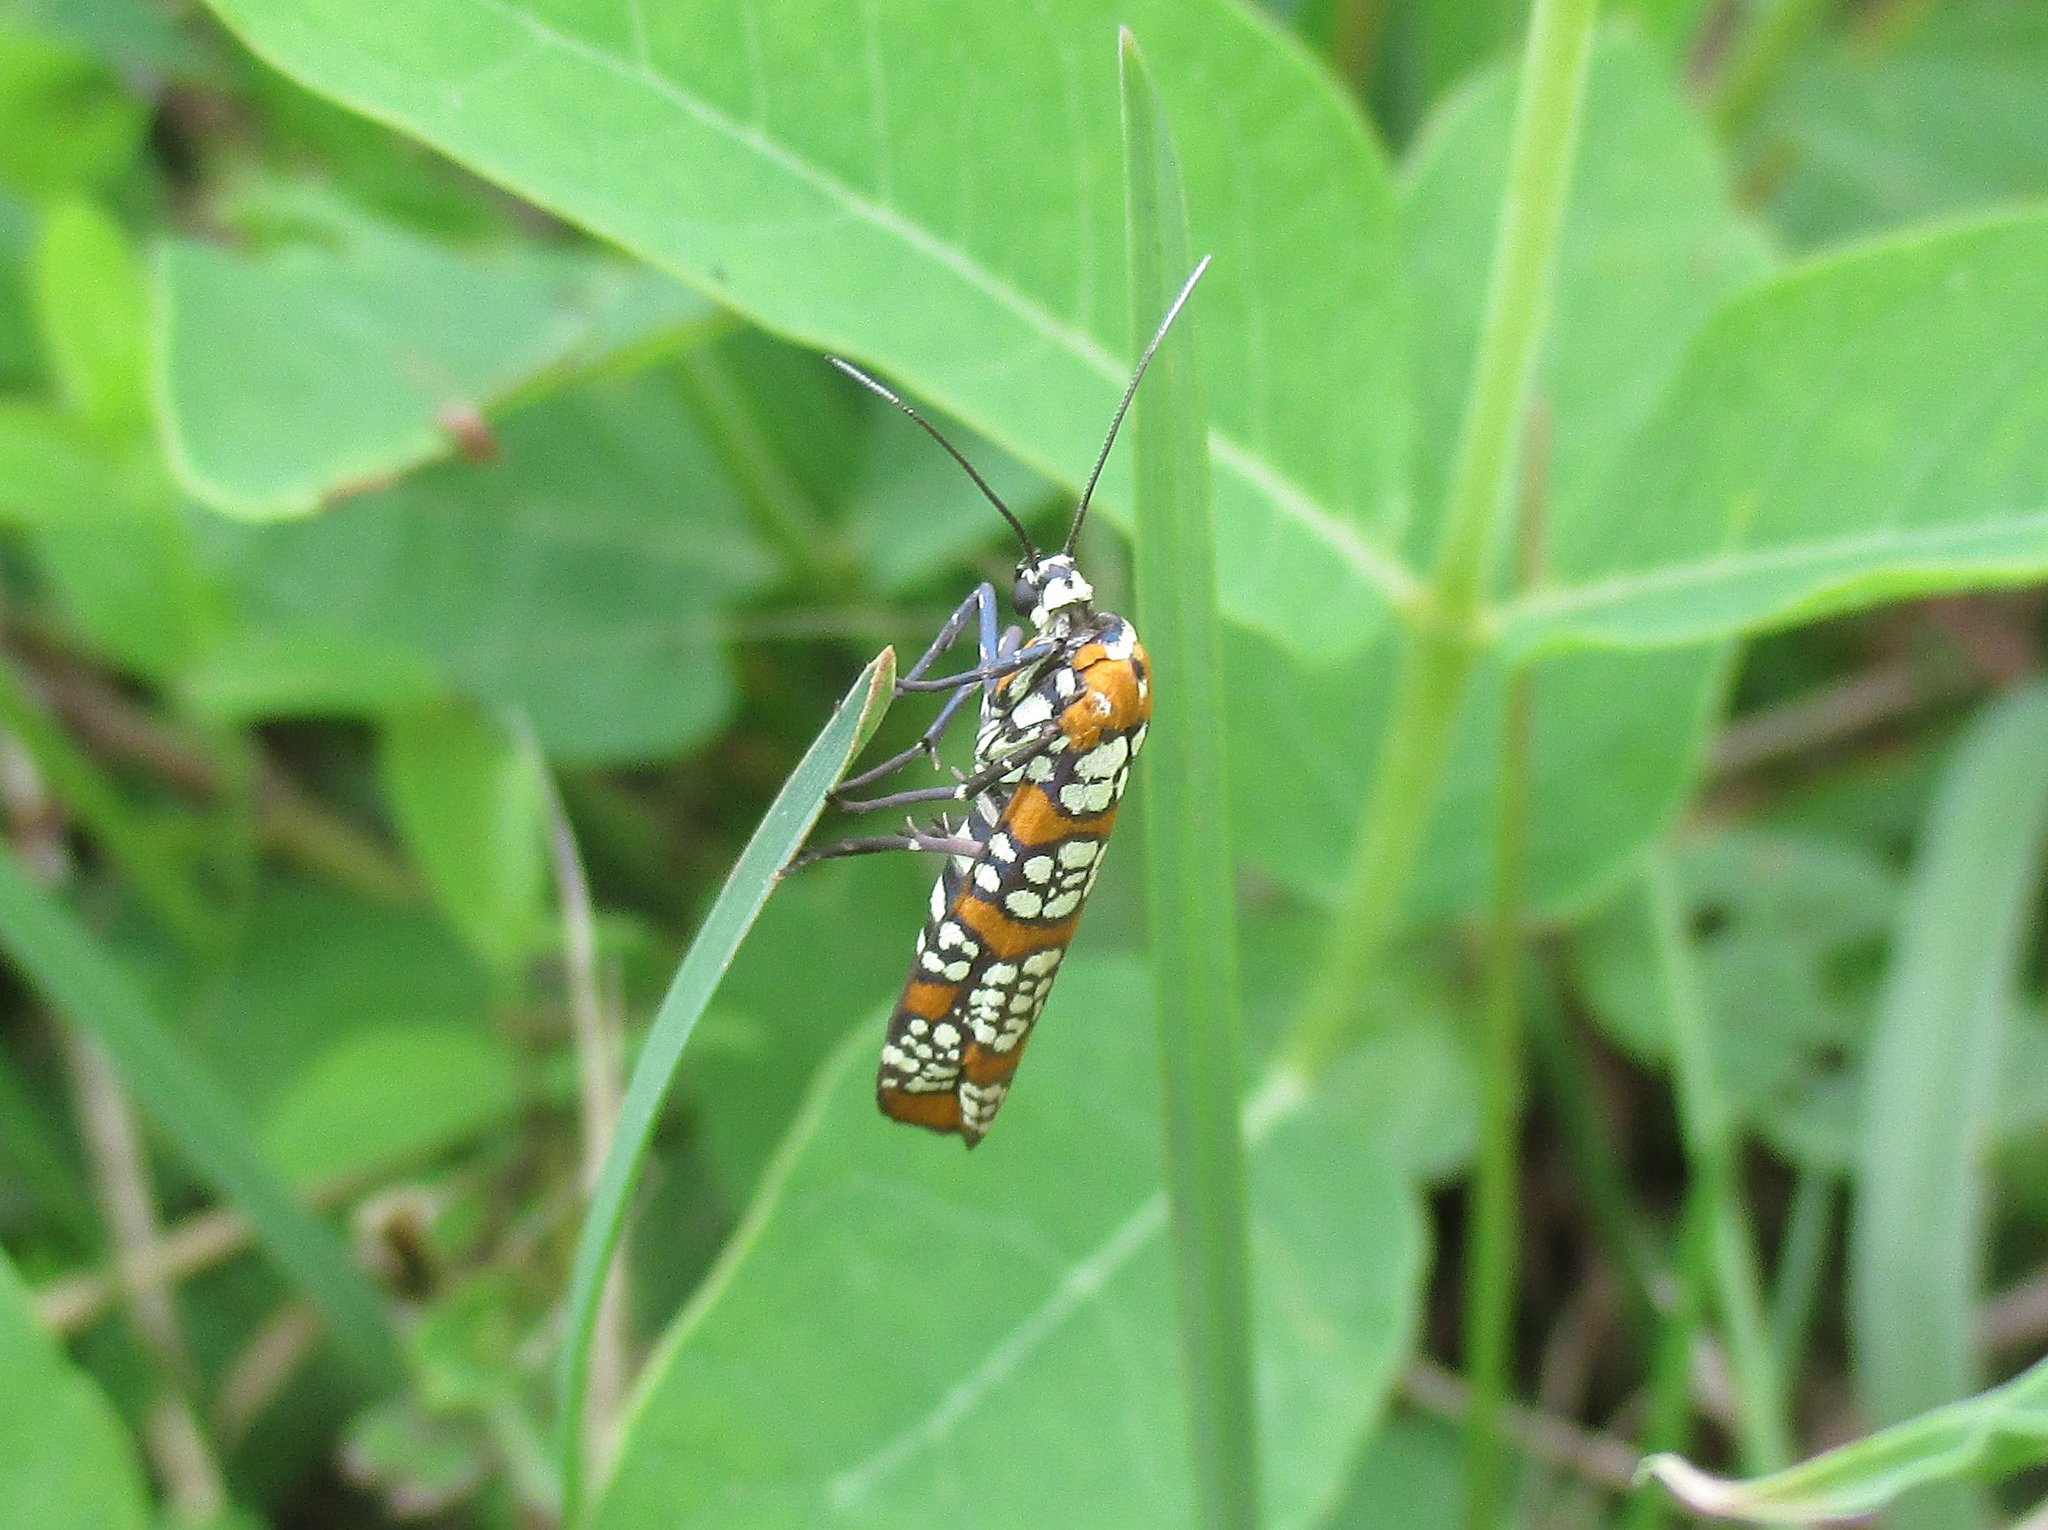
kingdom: Animalia
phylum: Arthropoda
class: Insecta
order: Lepidoptera
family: Attevidae
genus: Atteva
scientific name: Atteva punctella
